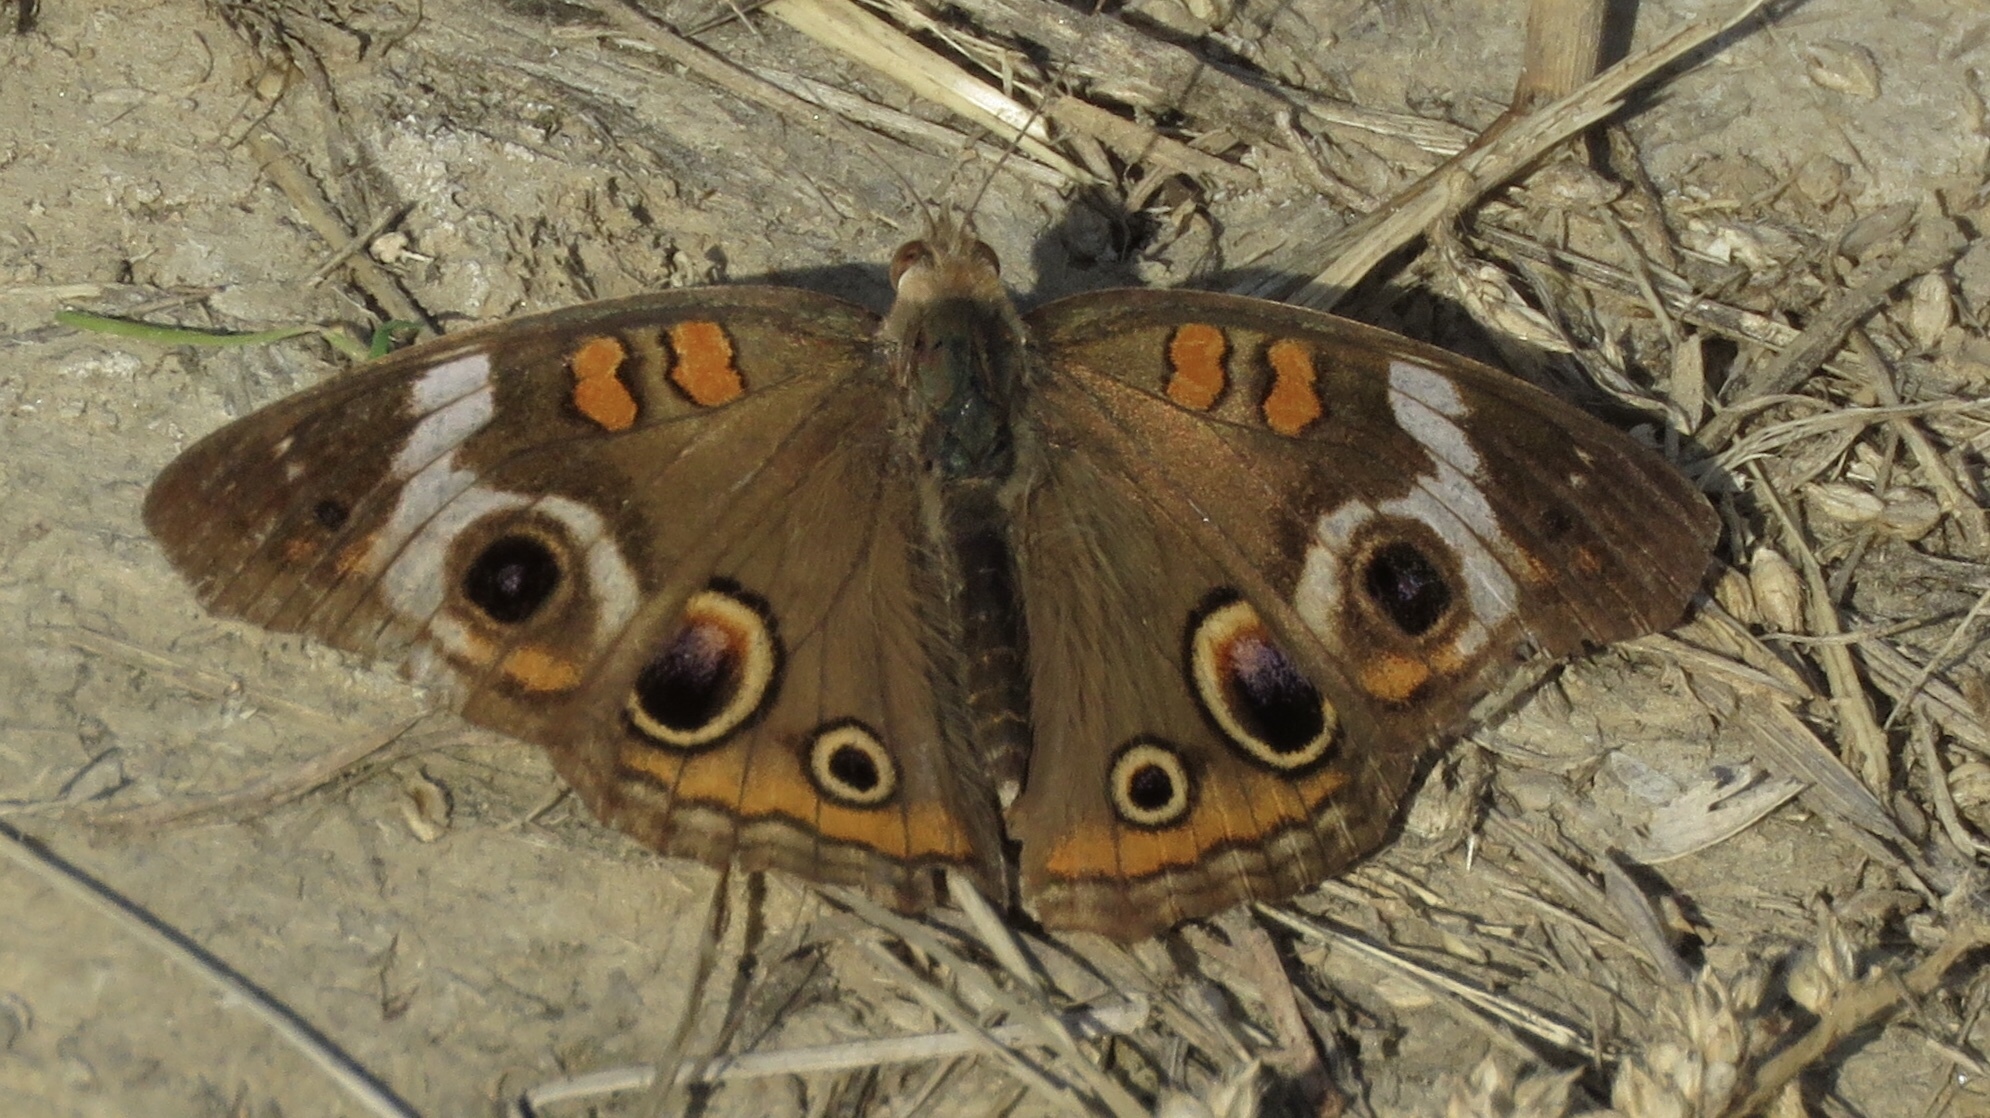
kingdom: Animalia
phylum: Arthropoda
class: Insecta
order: Lepidoptera
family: Nymphalidae
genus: Junonia
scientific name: Junonia coenia
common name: Common buckeye
